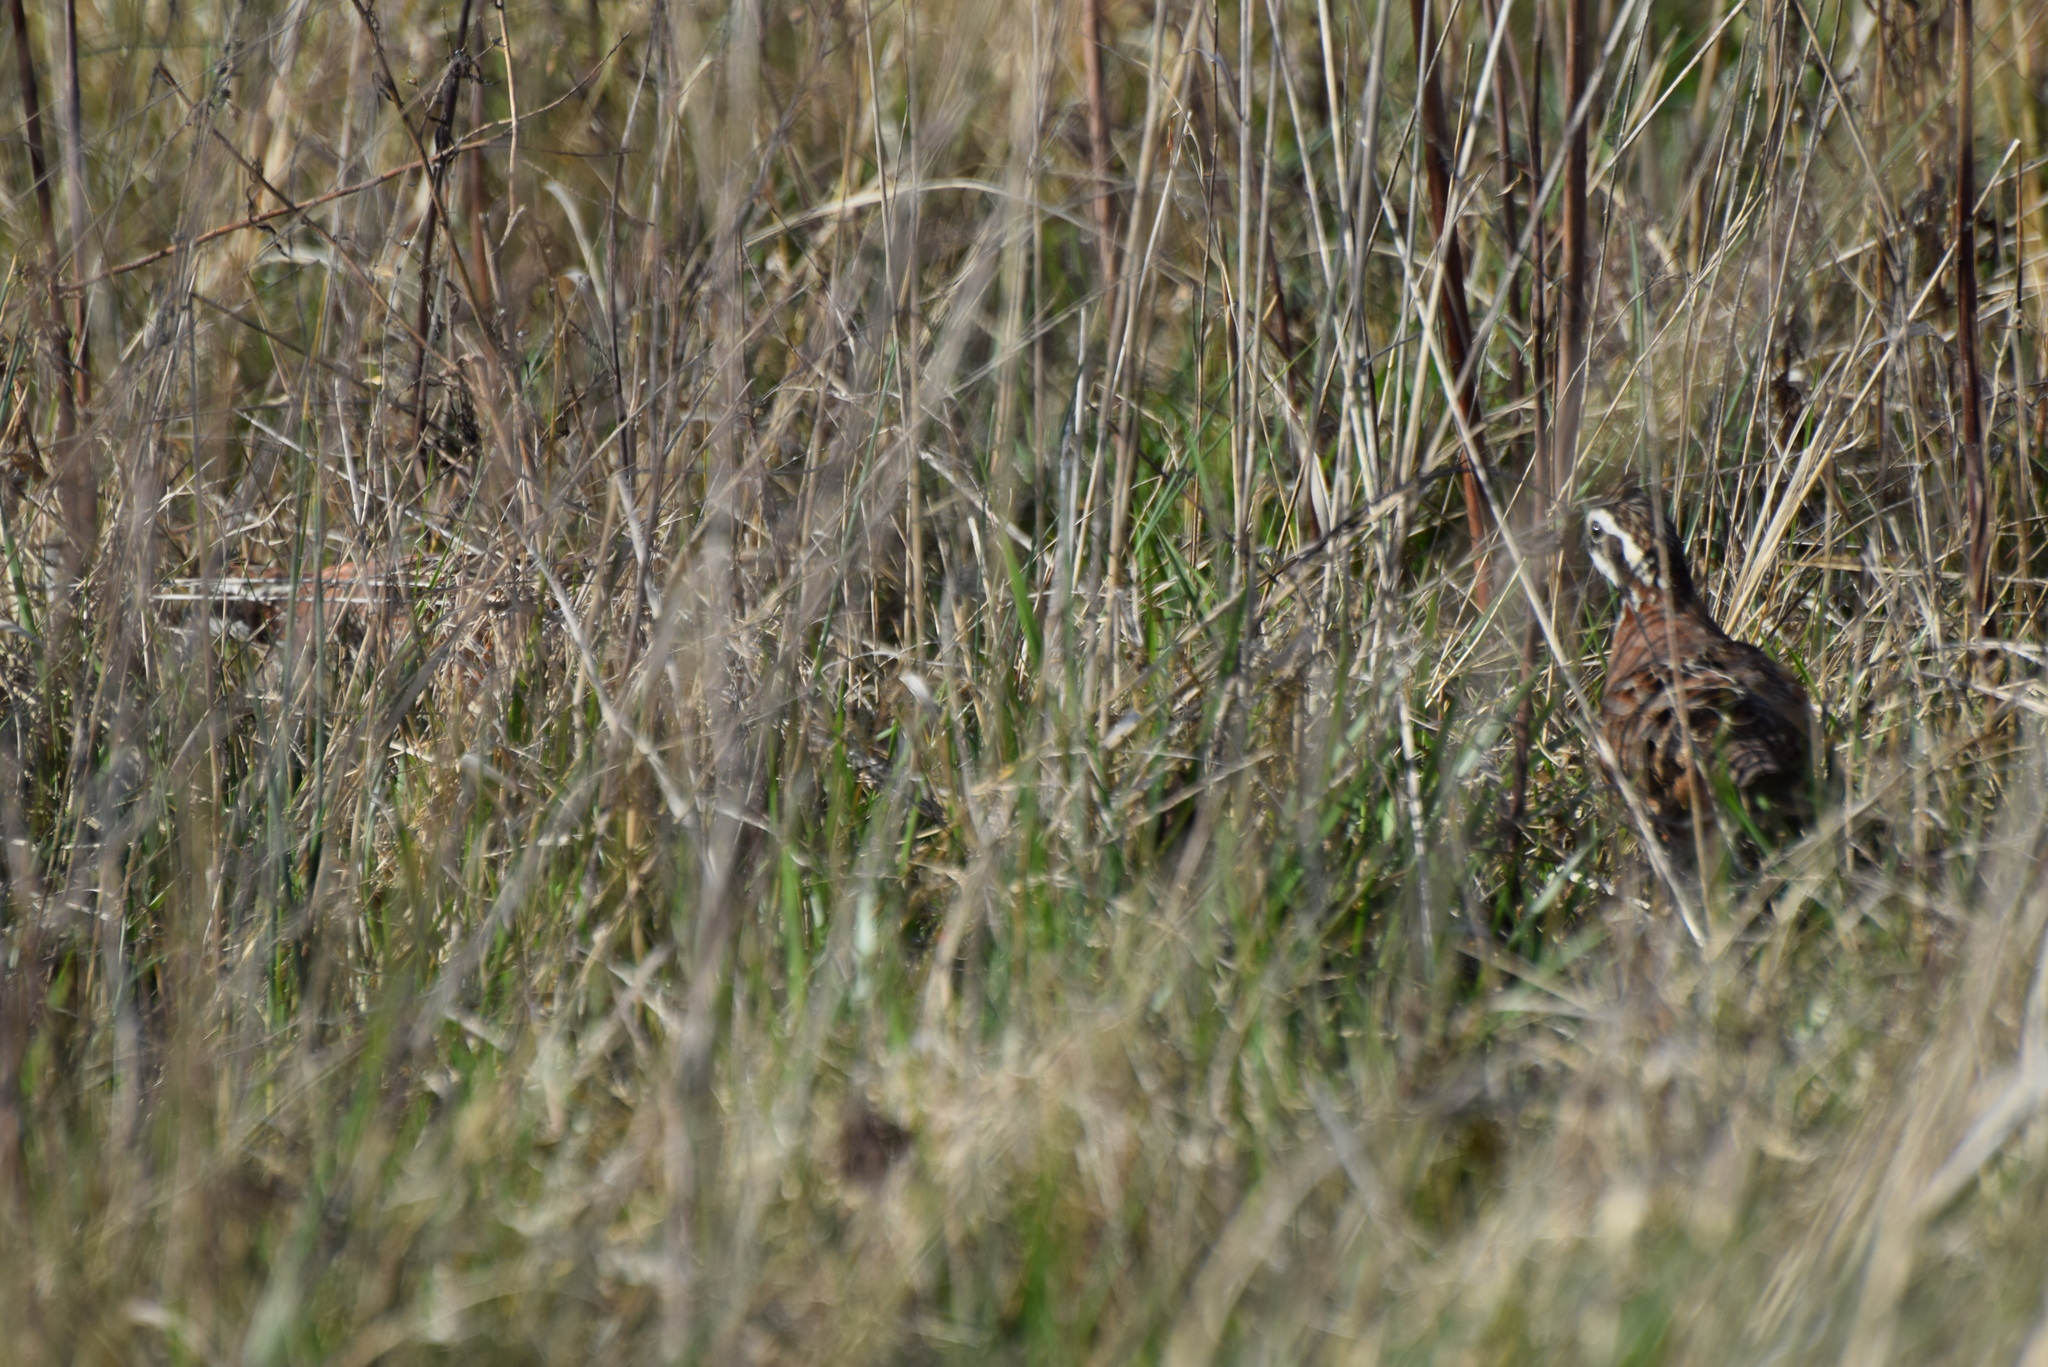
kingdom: Animalia
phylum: Chordata
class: Aves
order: Galliformes
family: Odontophoridae
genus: Colinus
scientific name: Colinus virginianus
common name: Northern bobwhite
